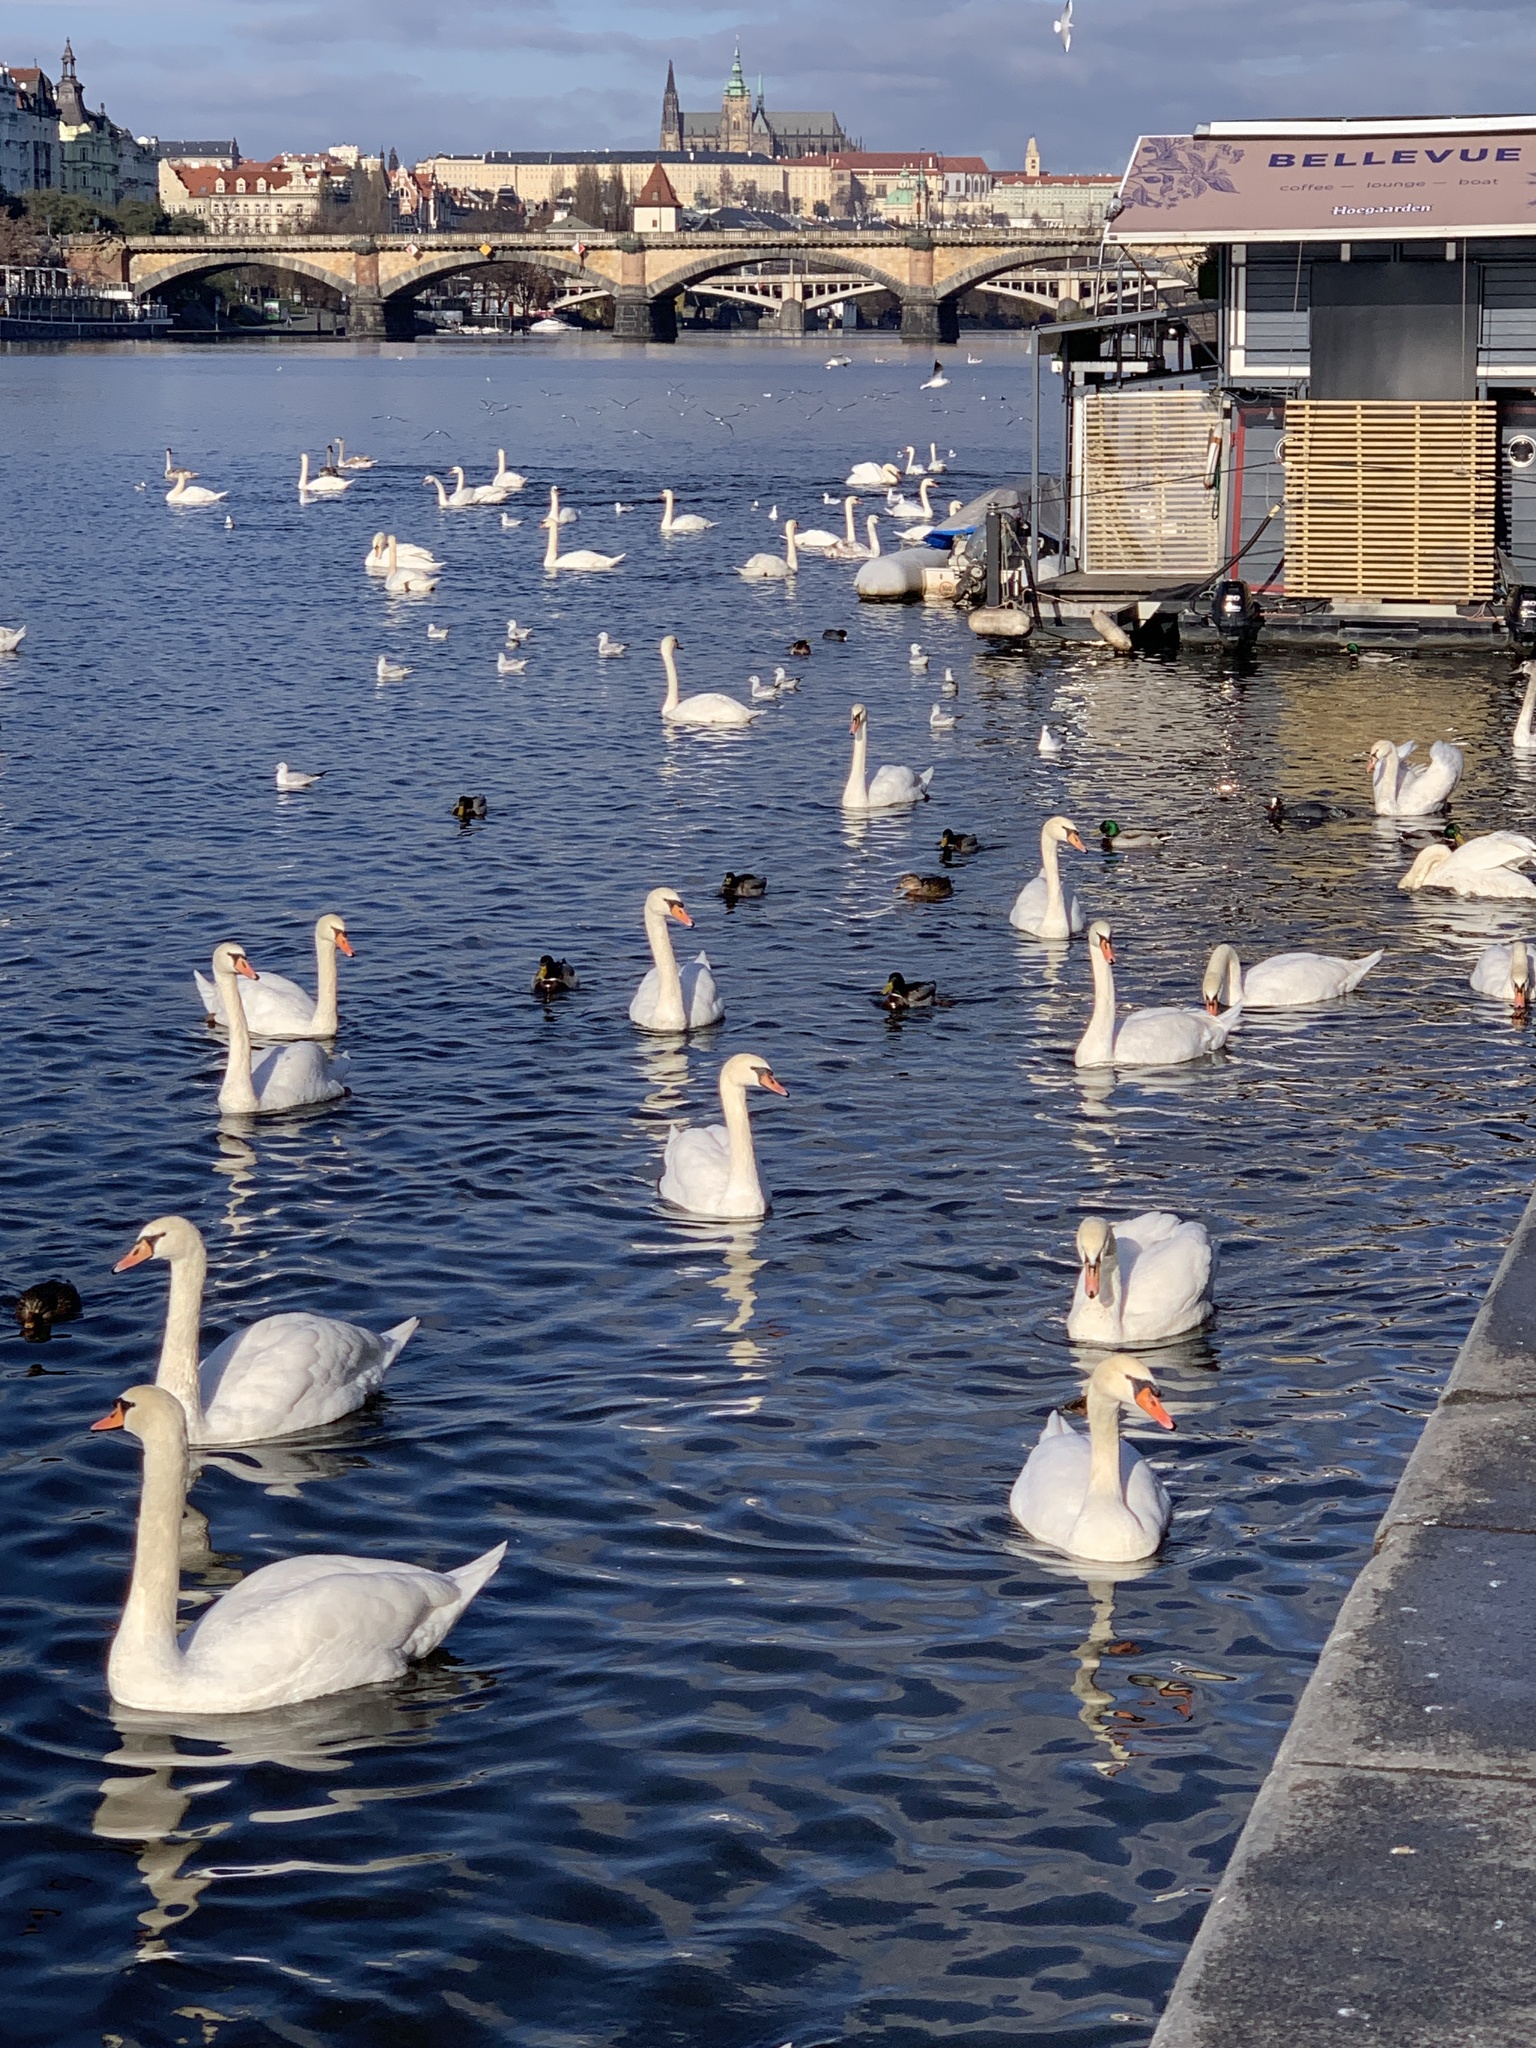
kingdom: Animalia
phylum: Chordata
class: Aves
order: Anseriformes
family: Anatidae
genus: Cygnus
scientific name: Cygnus olor
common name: Mute swan
